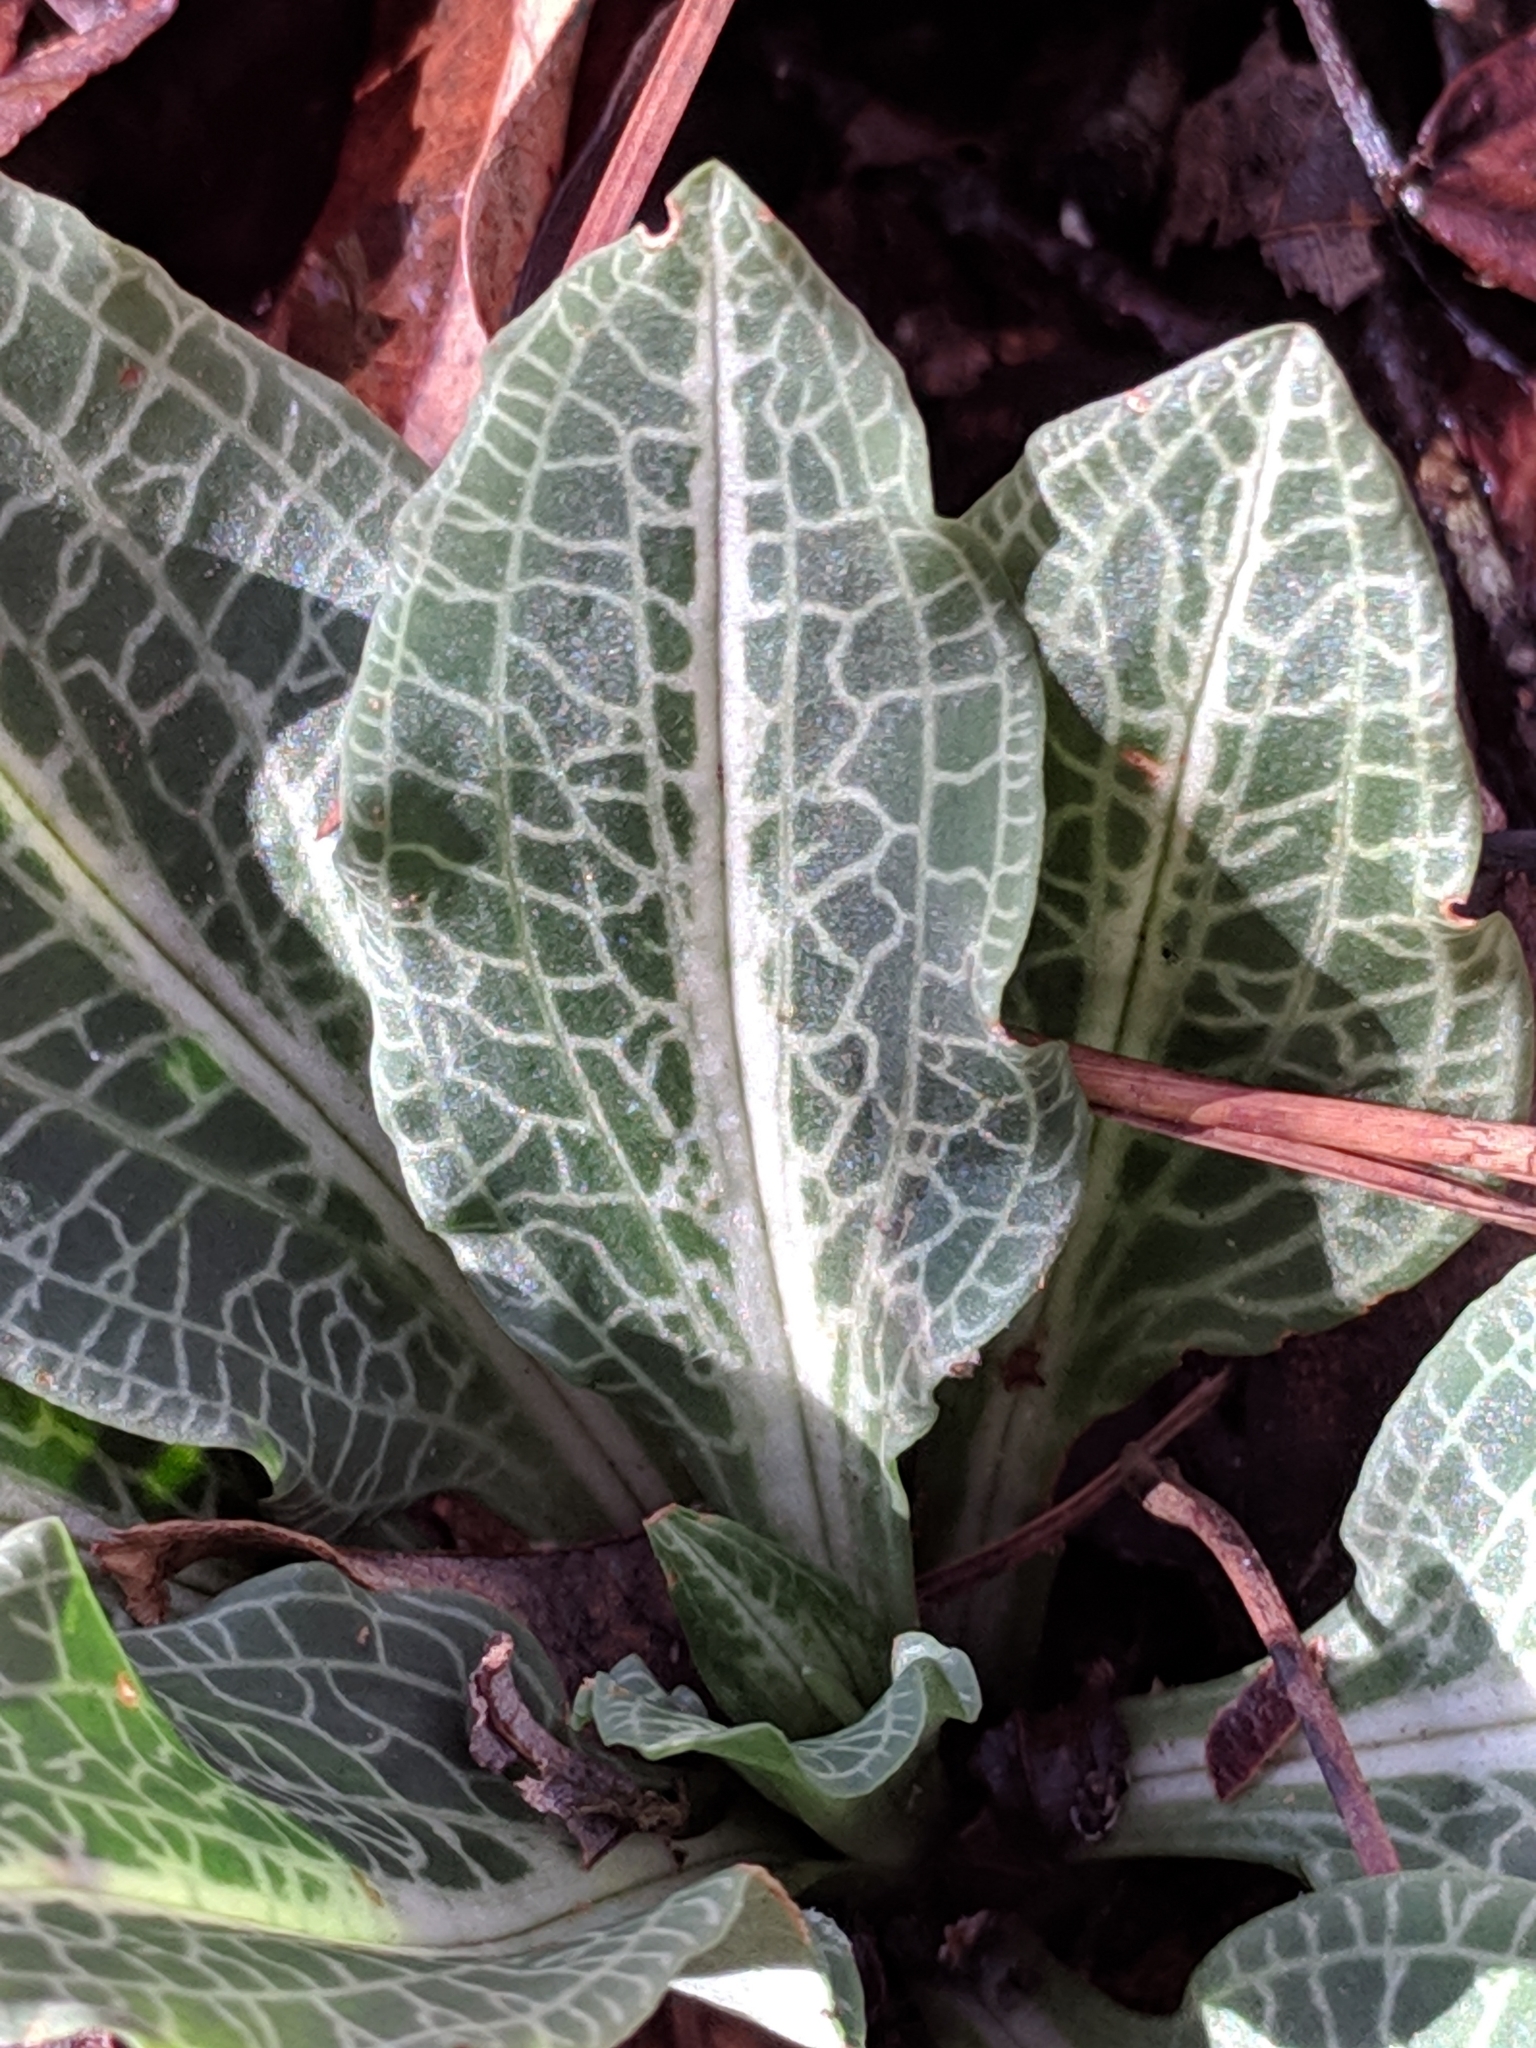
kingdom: Plantae
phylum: Tracheophyta
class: Liliopsida
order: Asparagales
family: Orchidaceae
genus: Goodyera
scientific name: Goodyera pubescens
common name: Downy rattlesnake-plantain
